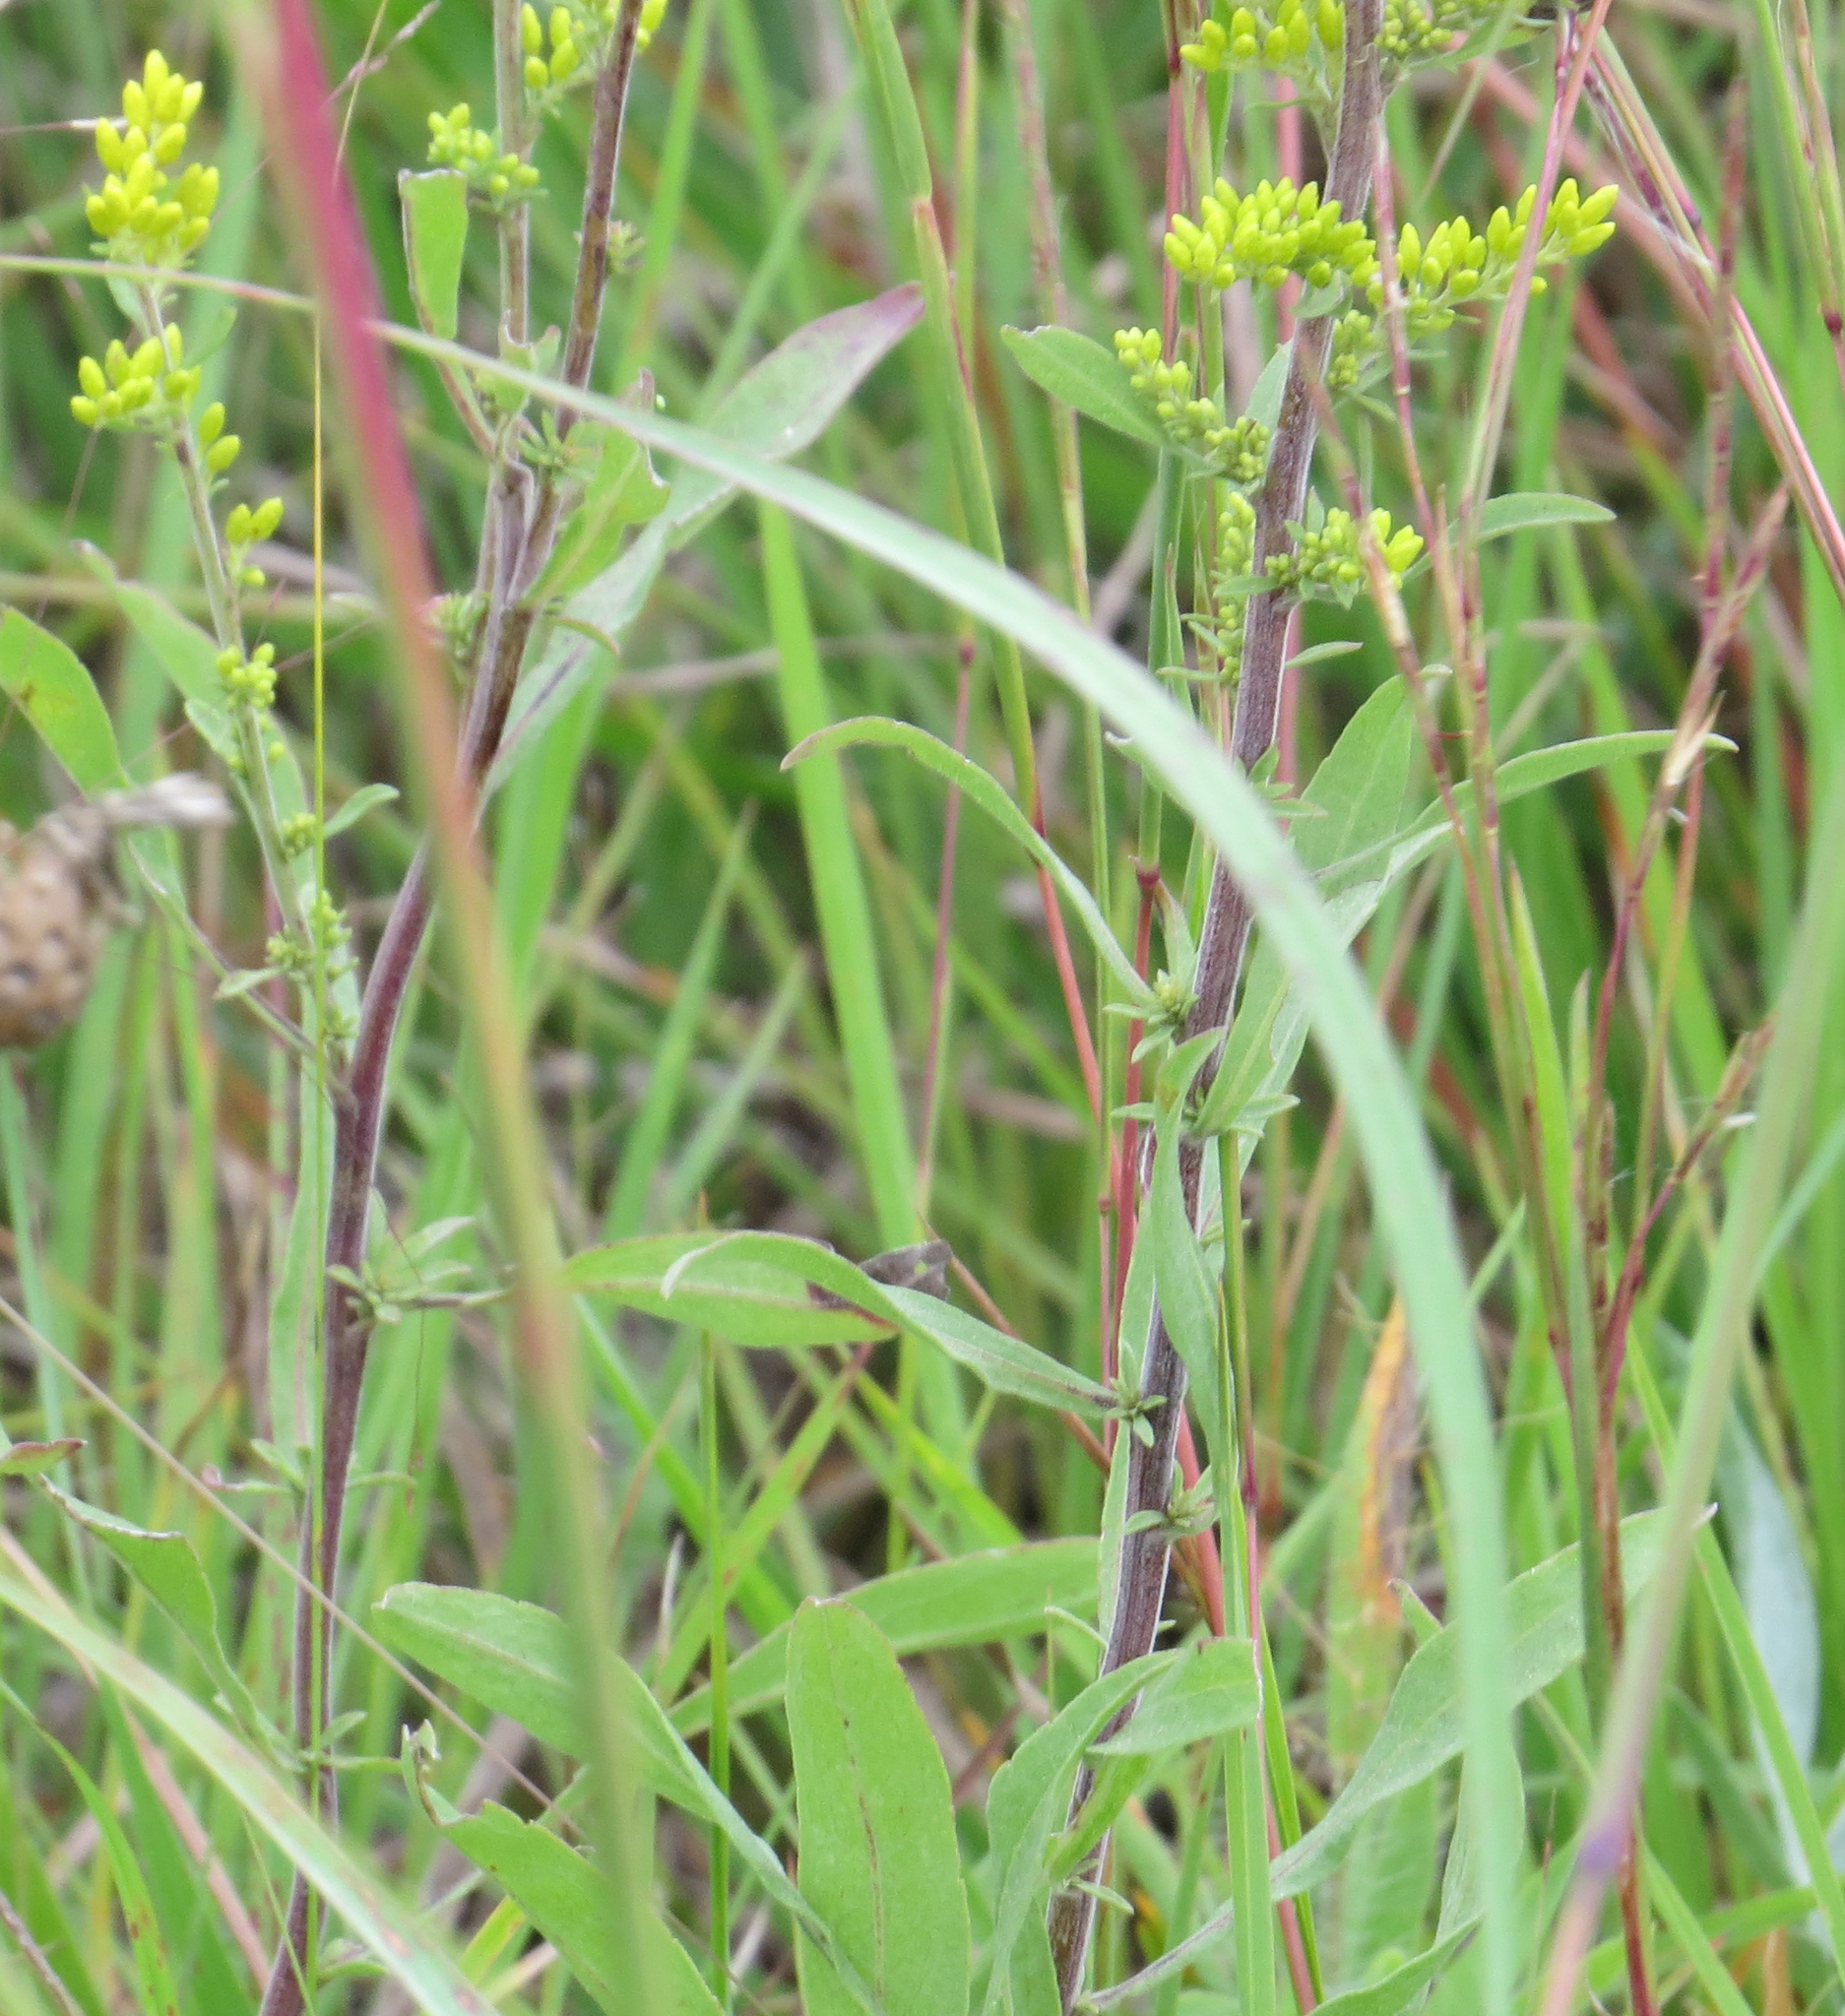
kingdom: Plantae
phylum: Tracheophyta
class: Magnoliopsida
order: Asterales
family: Asteraceae
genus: Solidago
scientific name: Solidago nemoralis
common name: Grey goldenrod
